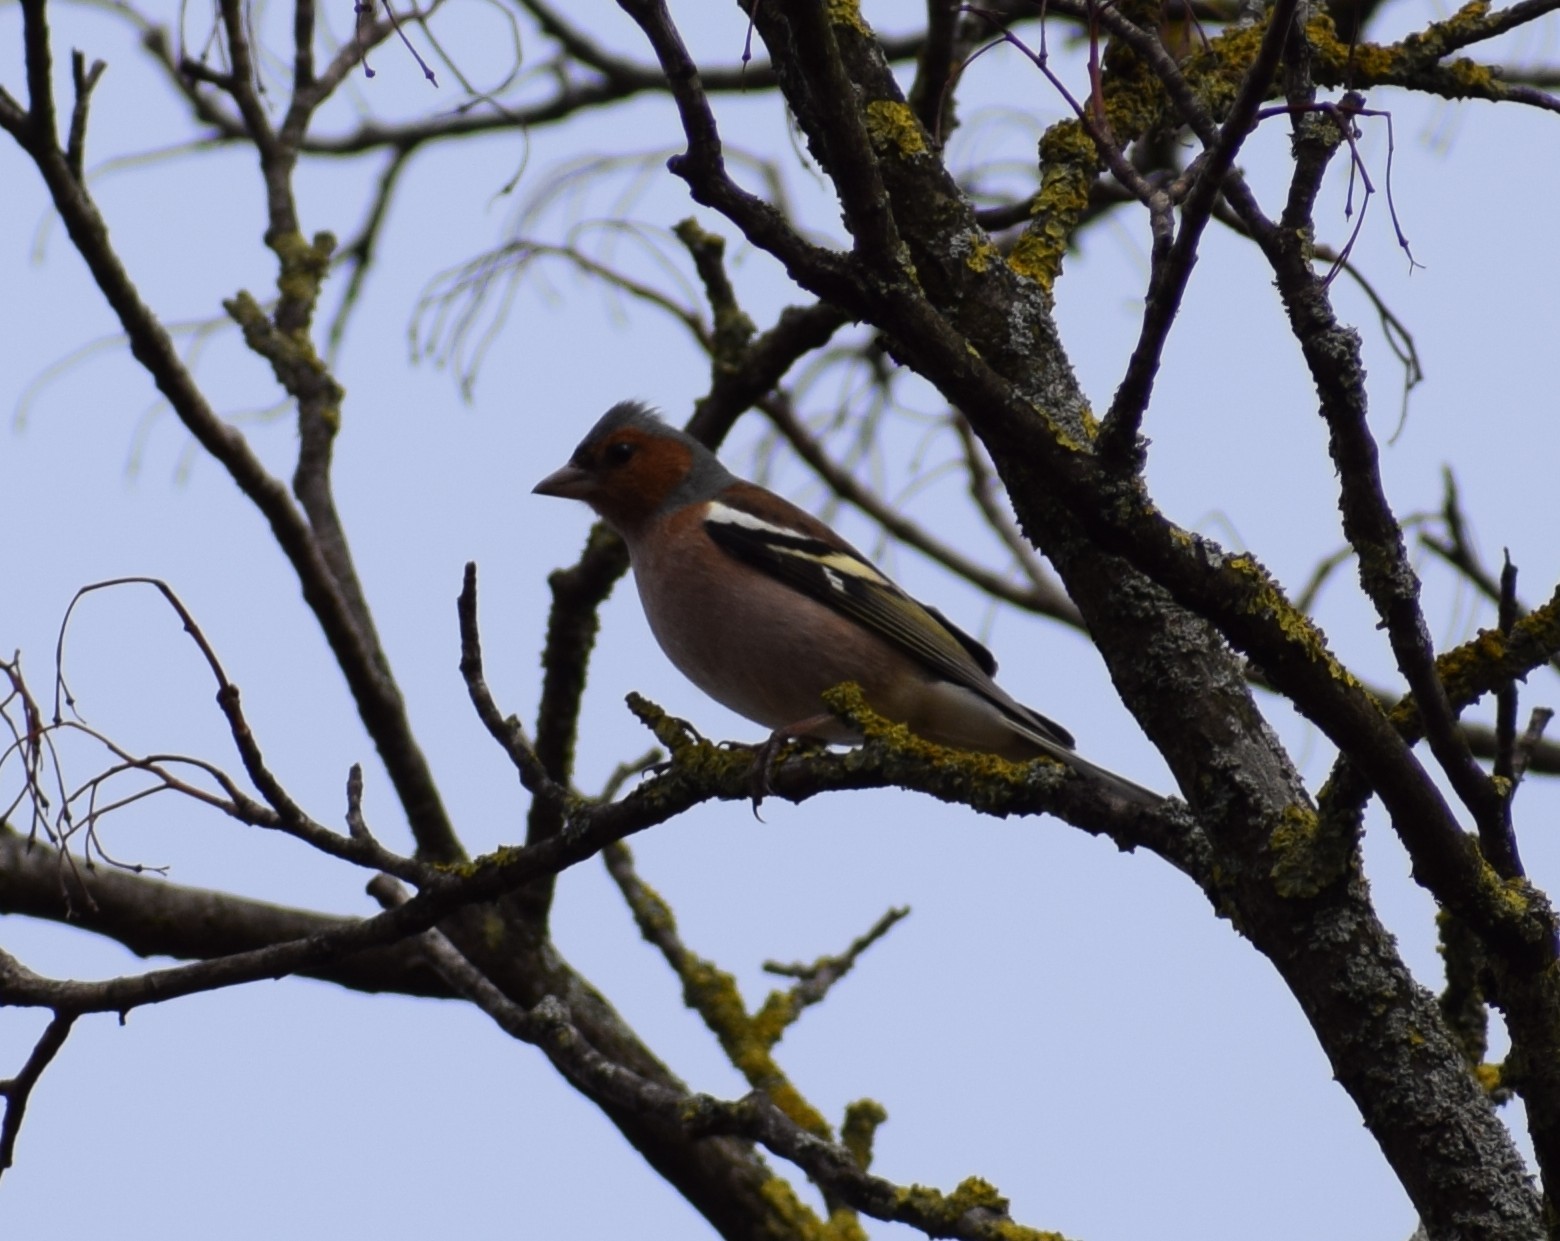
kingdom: Animalia
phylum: Chordata
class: Aves
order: Passeriformes
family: Fringillidae
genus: Fringilla
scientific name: Fringilla coelebs
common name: Common chaffinch
